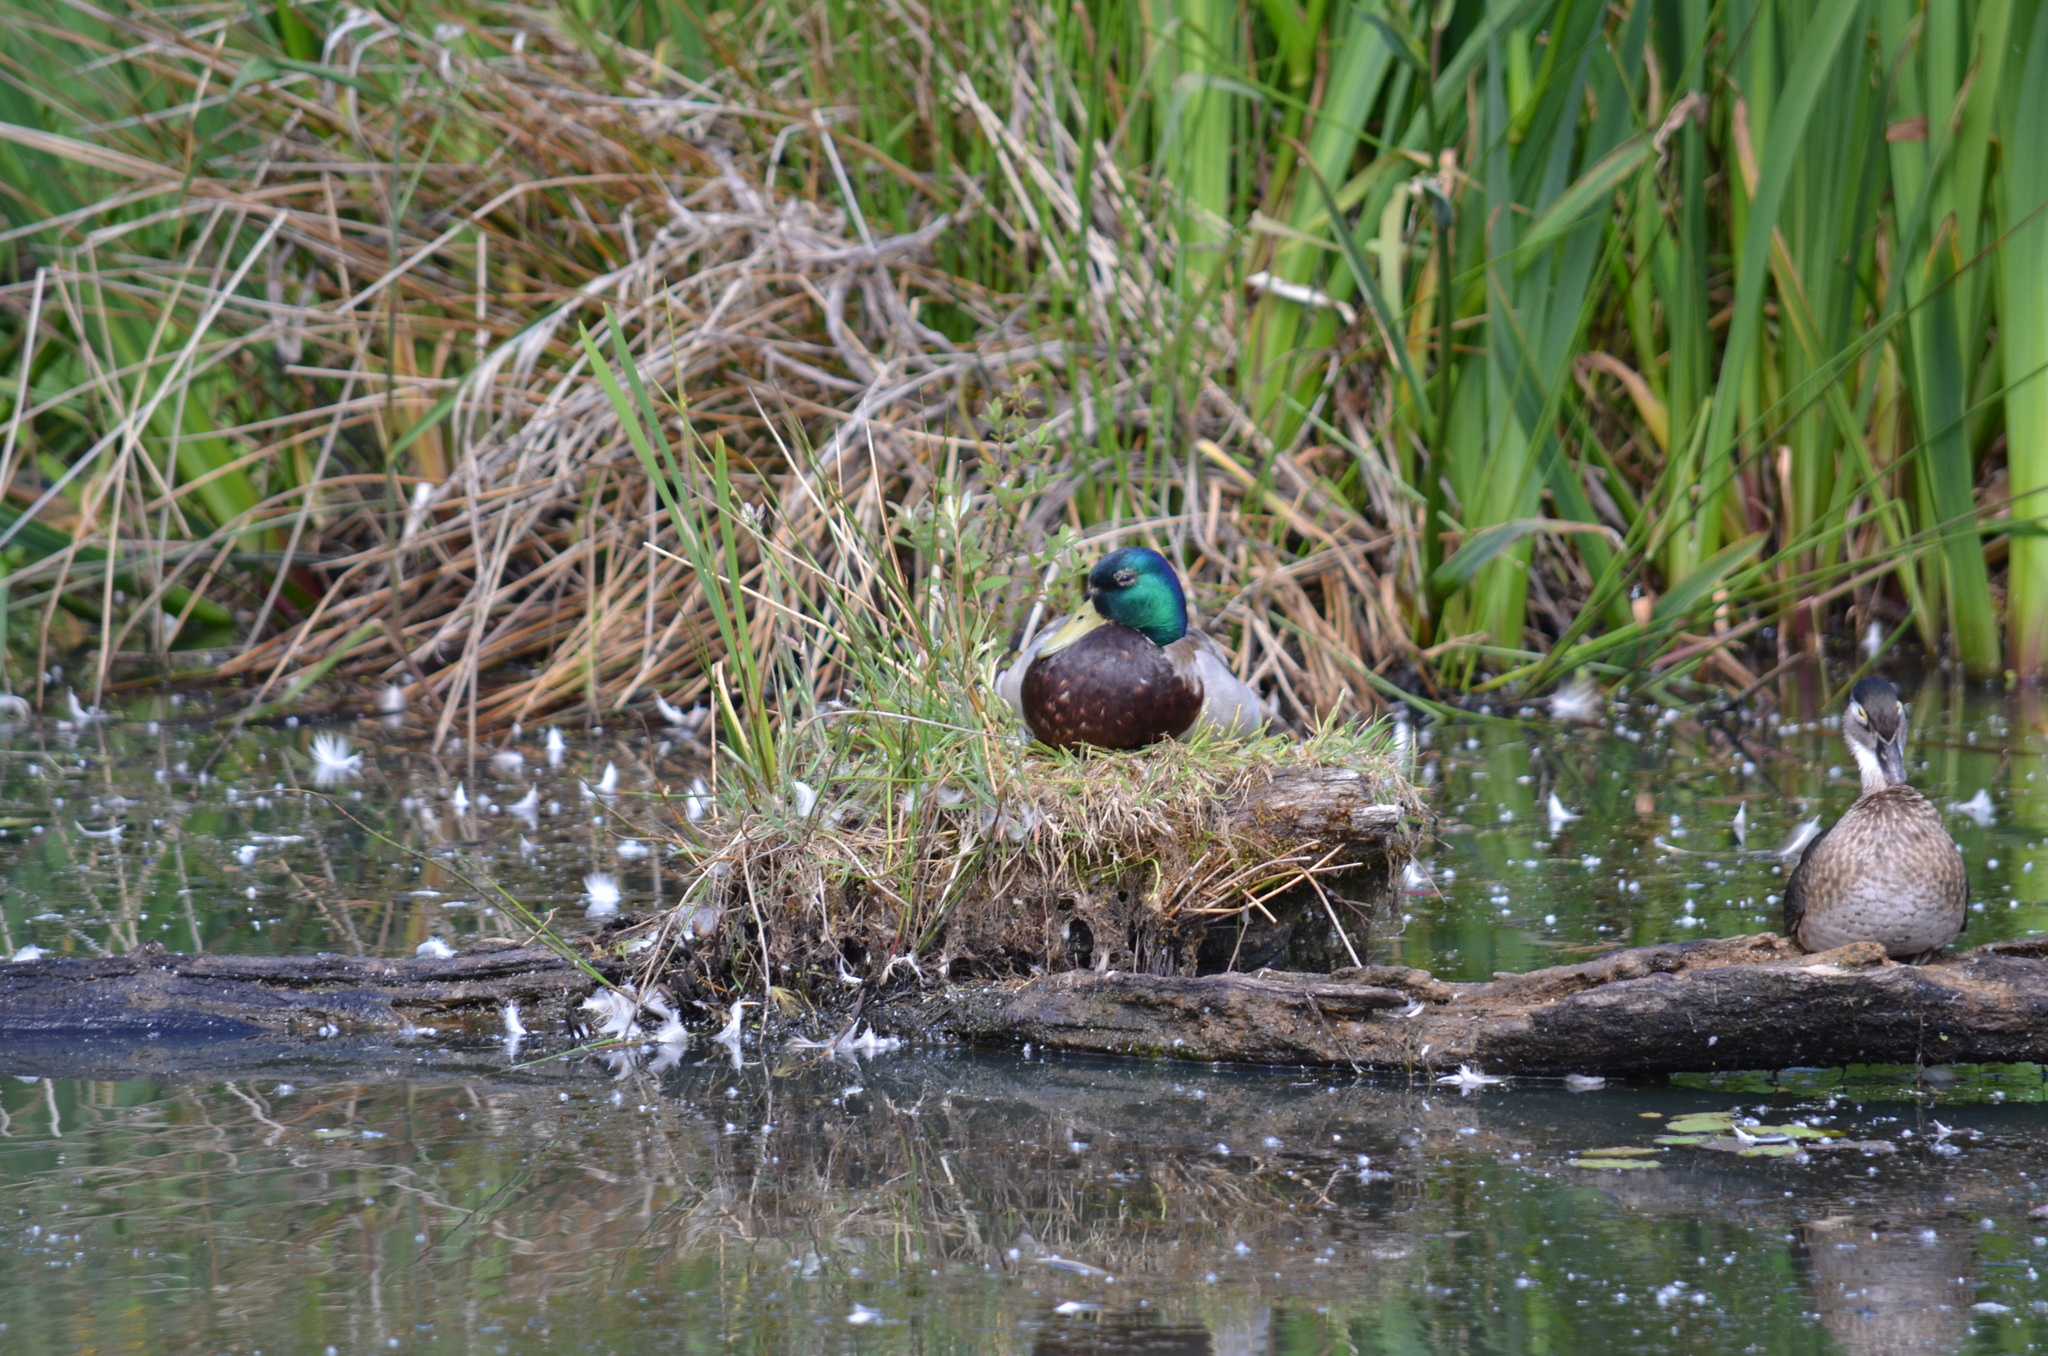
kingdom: Animalia
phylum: Chordata
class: Aves
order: Anseriformes
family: Anatidae
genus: Anas
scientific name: Anas platyrhynchos
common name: Mallard
